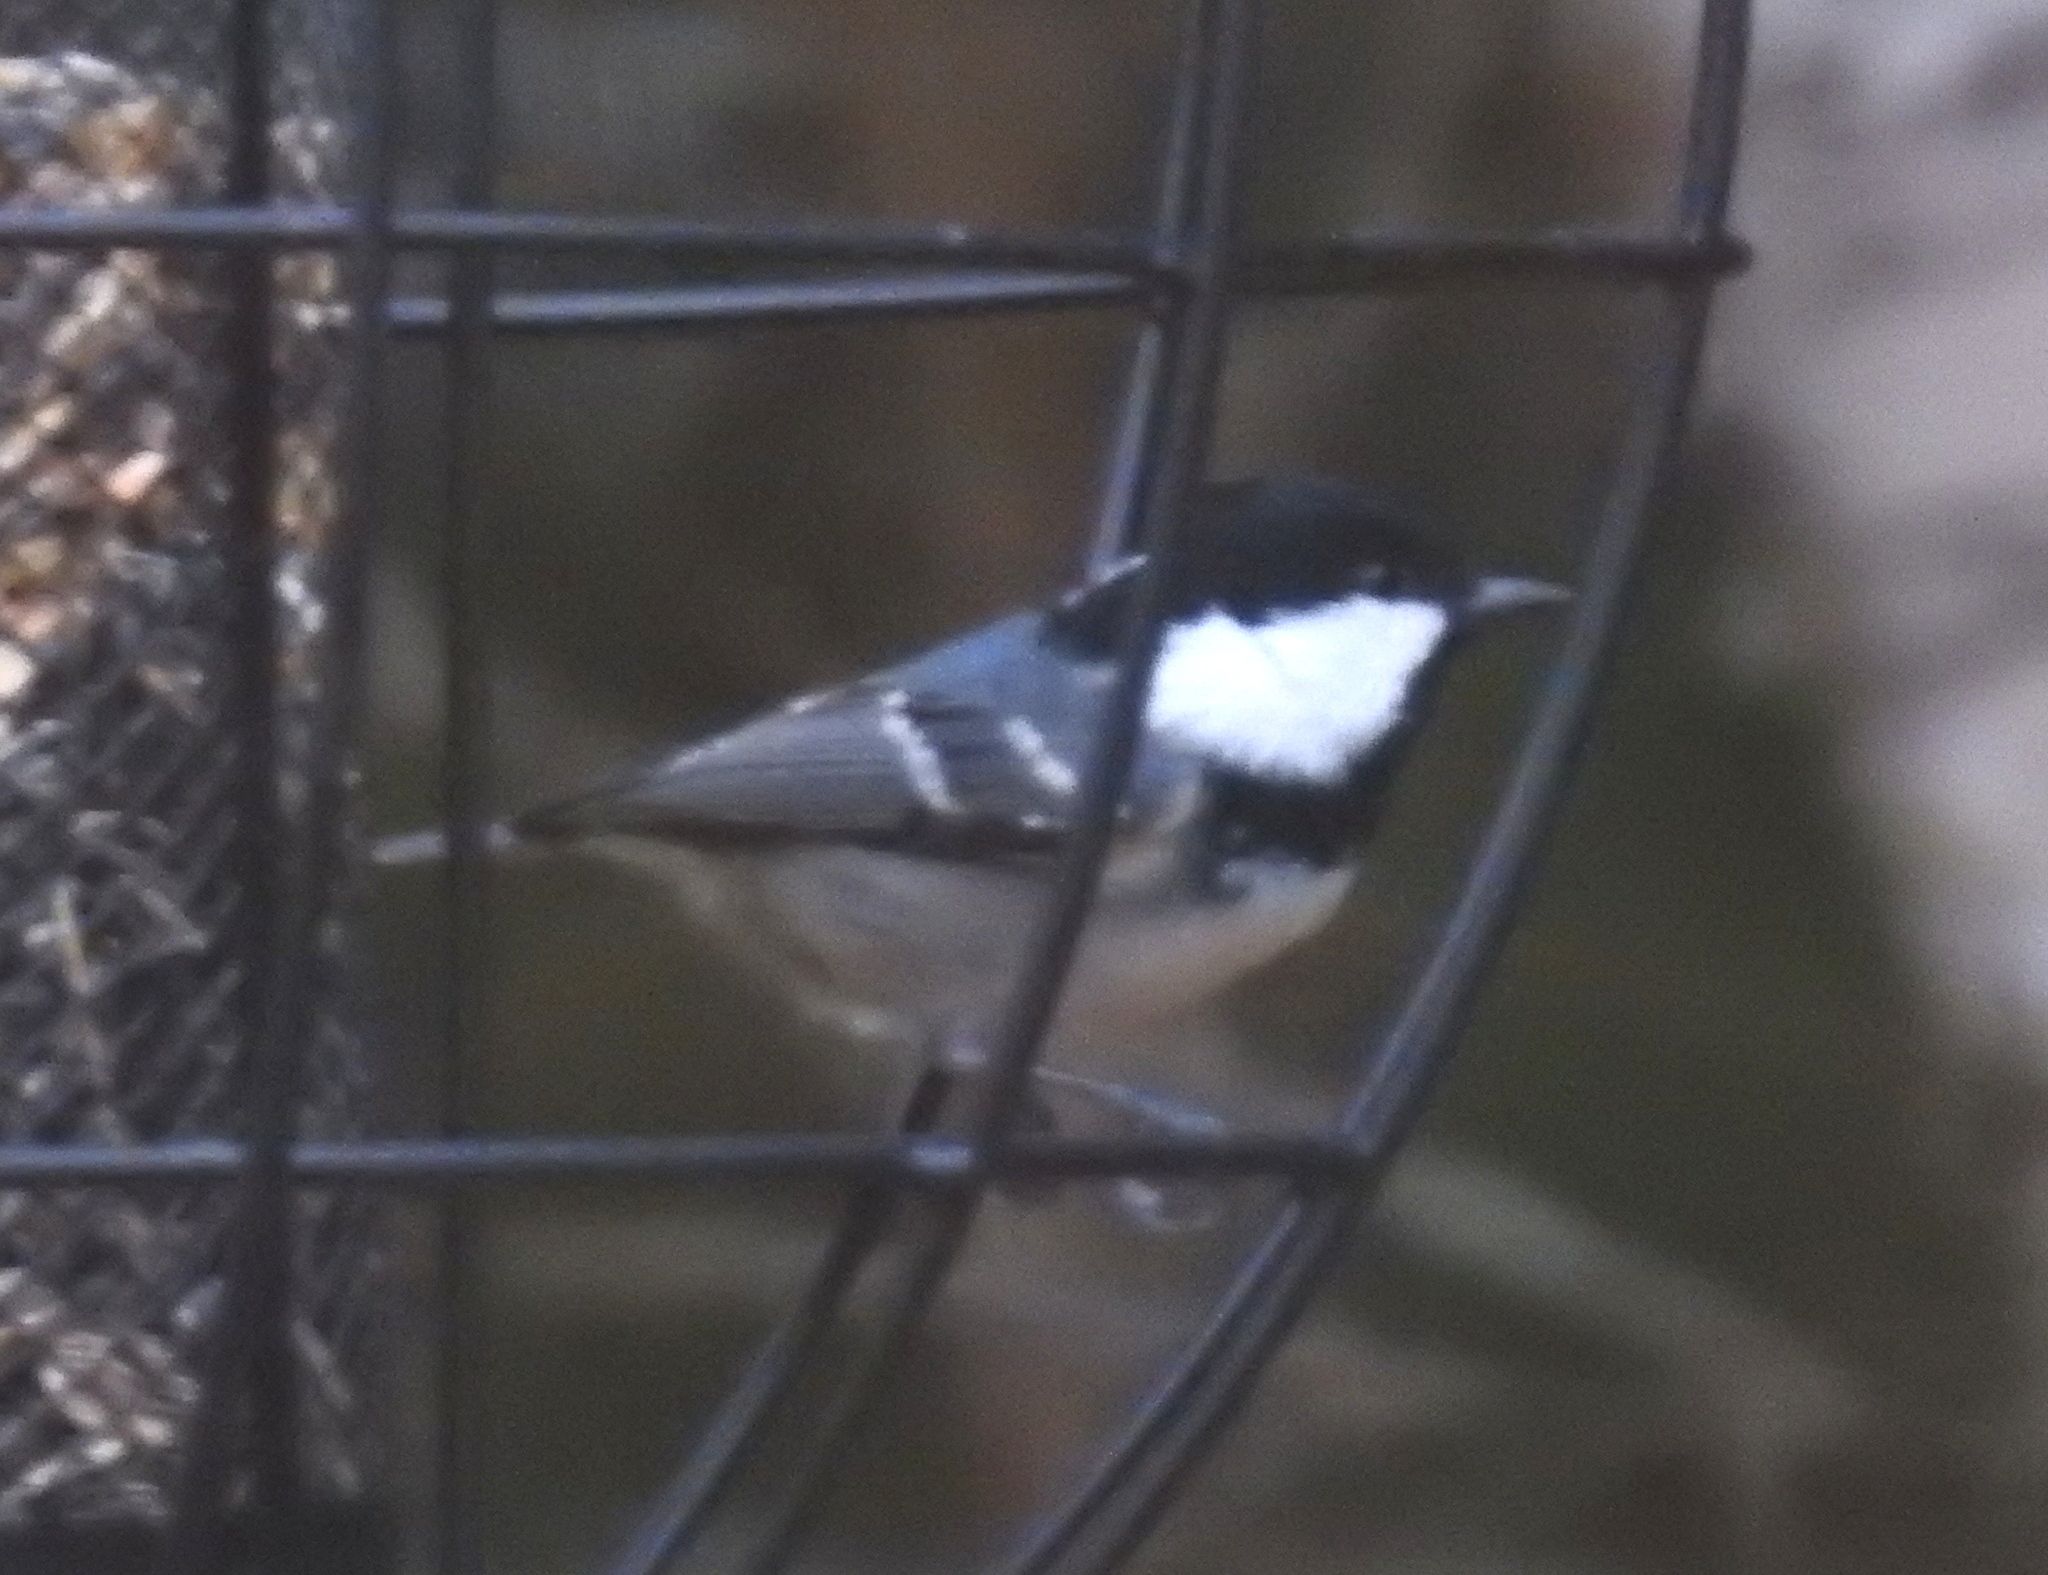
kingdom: Animalia
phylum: Chordata
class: Aves
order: Passeriformes
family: Paridae
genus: Periparus
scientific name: Periparus ater
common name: Coal tit
